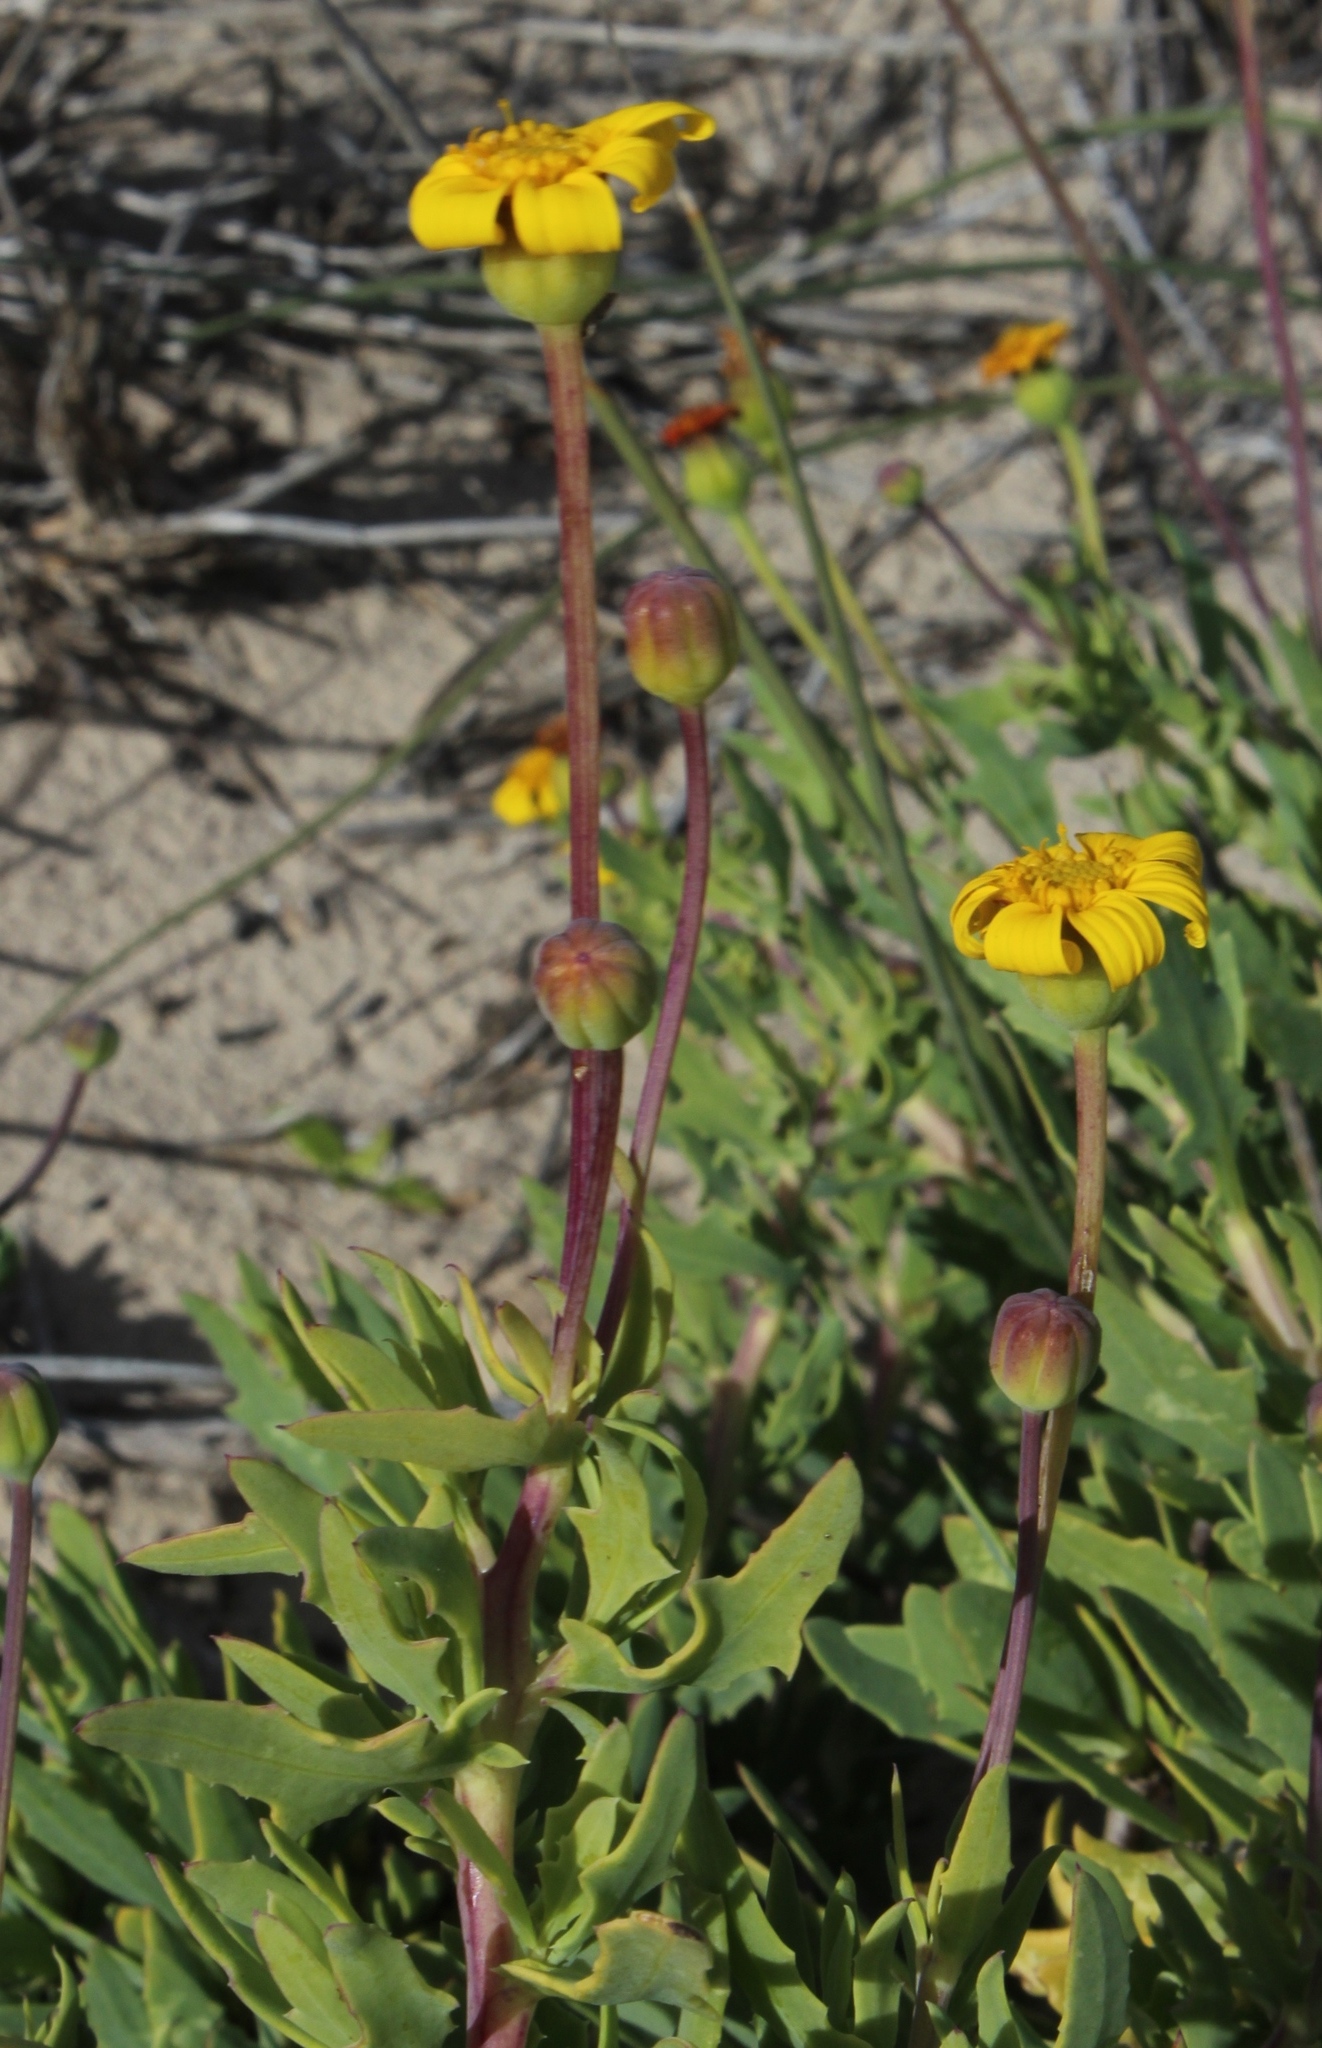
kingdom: Plantae
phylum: Tracheophyta
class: Magnoliopsida
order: Asterales
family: Asteraceae
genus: Othonna
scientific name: Othonna coronopifolia
